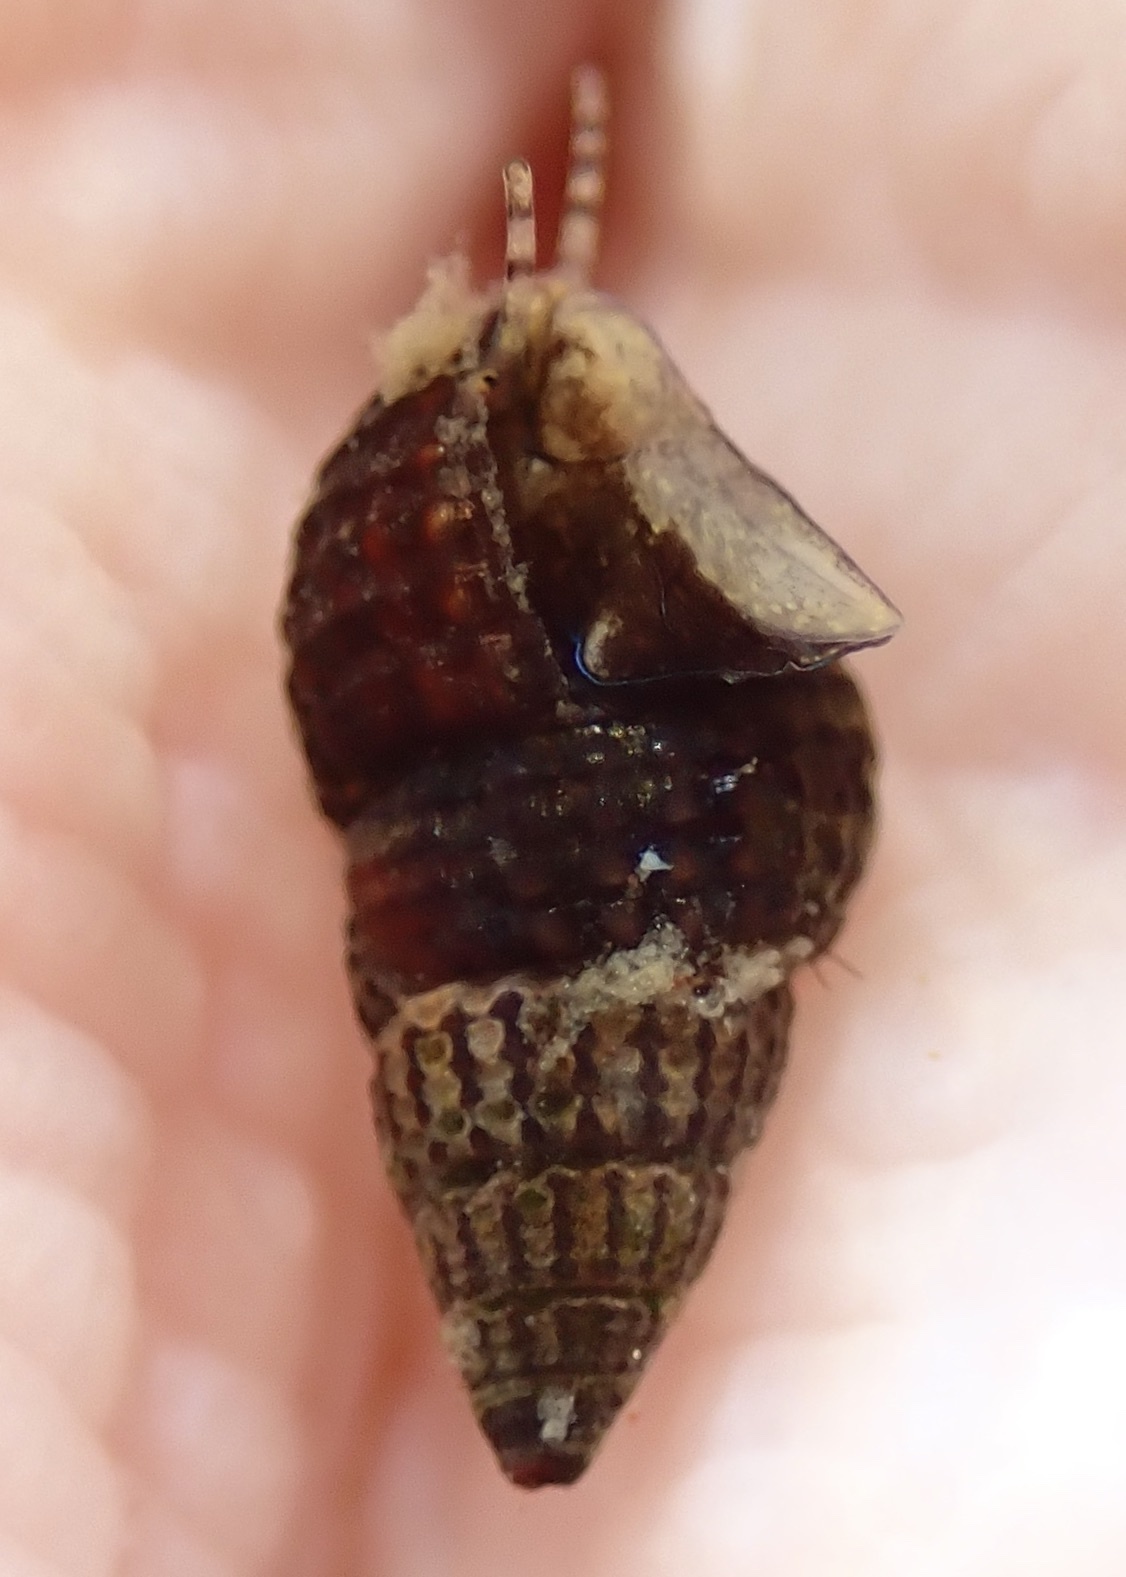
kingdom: Animalia
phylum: Mollusca
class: Gastropoda
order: Neogastropoda
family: Nassariidae
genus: Ilyanassa
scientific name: Ilyanassa trivittata
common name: Three-line mudsnail
